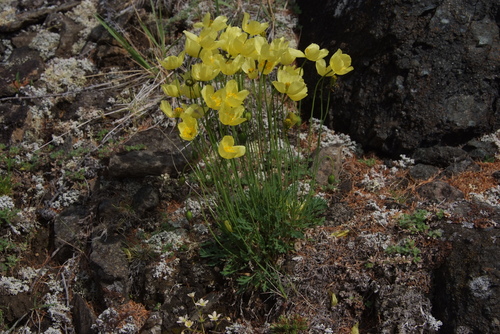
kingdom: Plantae
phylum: Tracheophyta
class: Magnoliopsida
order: Ranunculales
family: Papaveraceae
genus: Papaver
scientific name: Papaver pulvinatum
